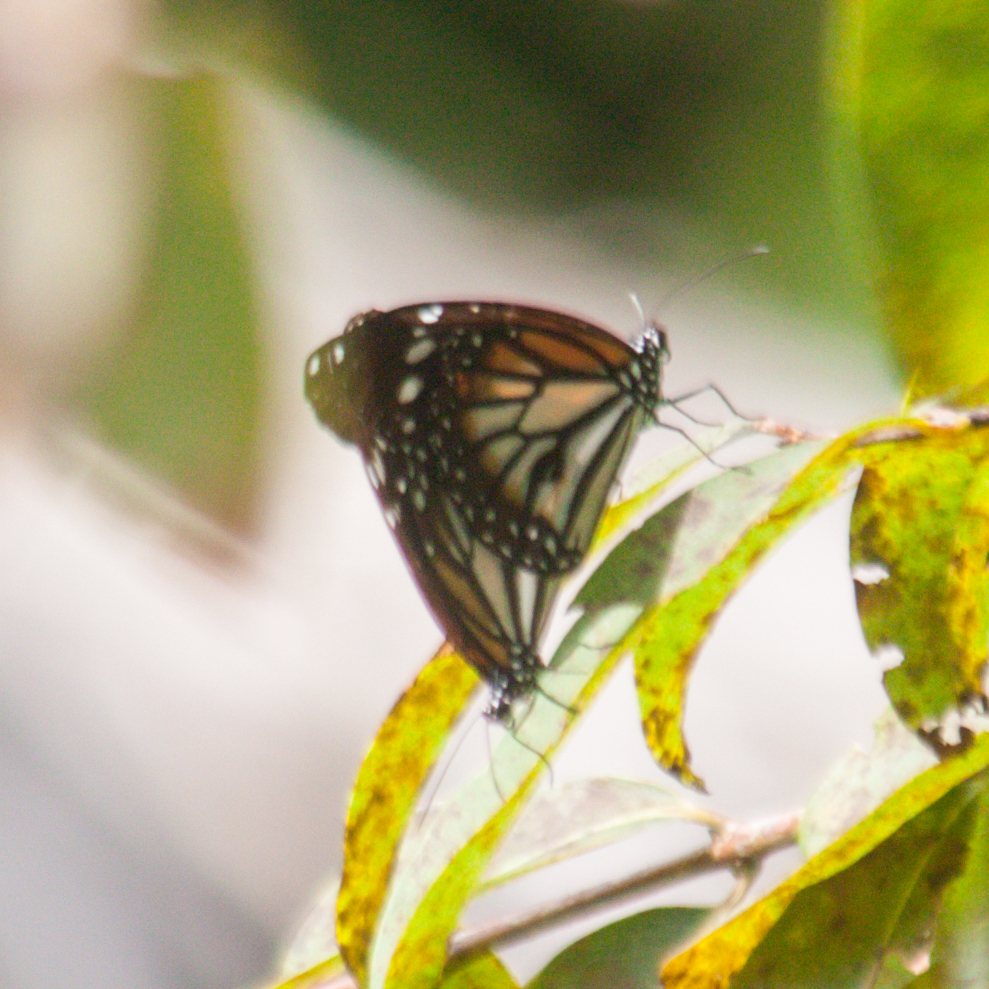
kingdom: Animalia
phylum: Arthropoda
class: Insecta
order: Lepidoptera
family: Nymphalidae
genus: Danaus
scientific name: Danaus melanippus
